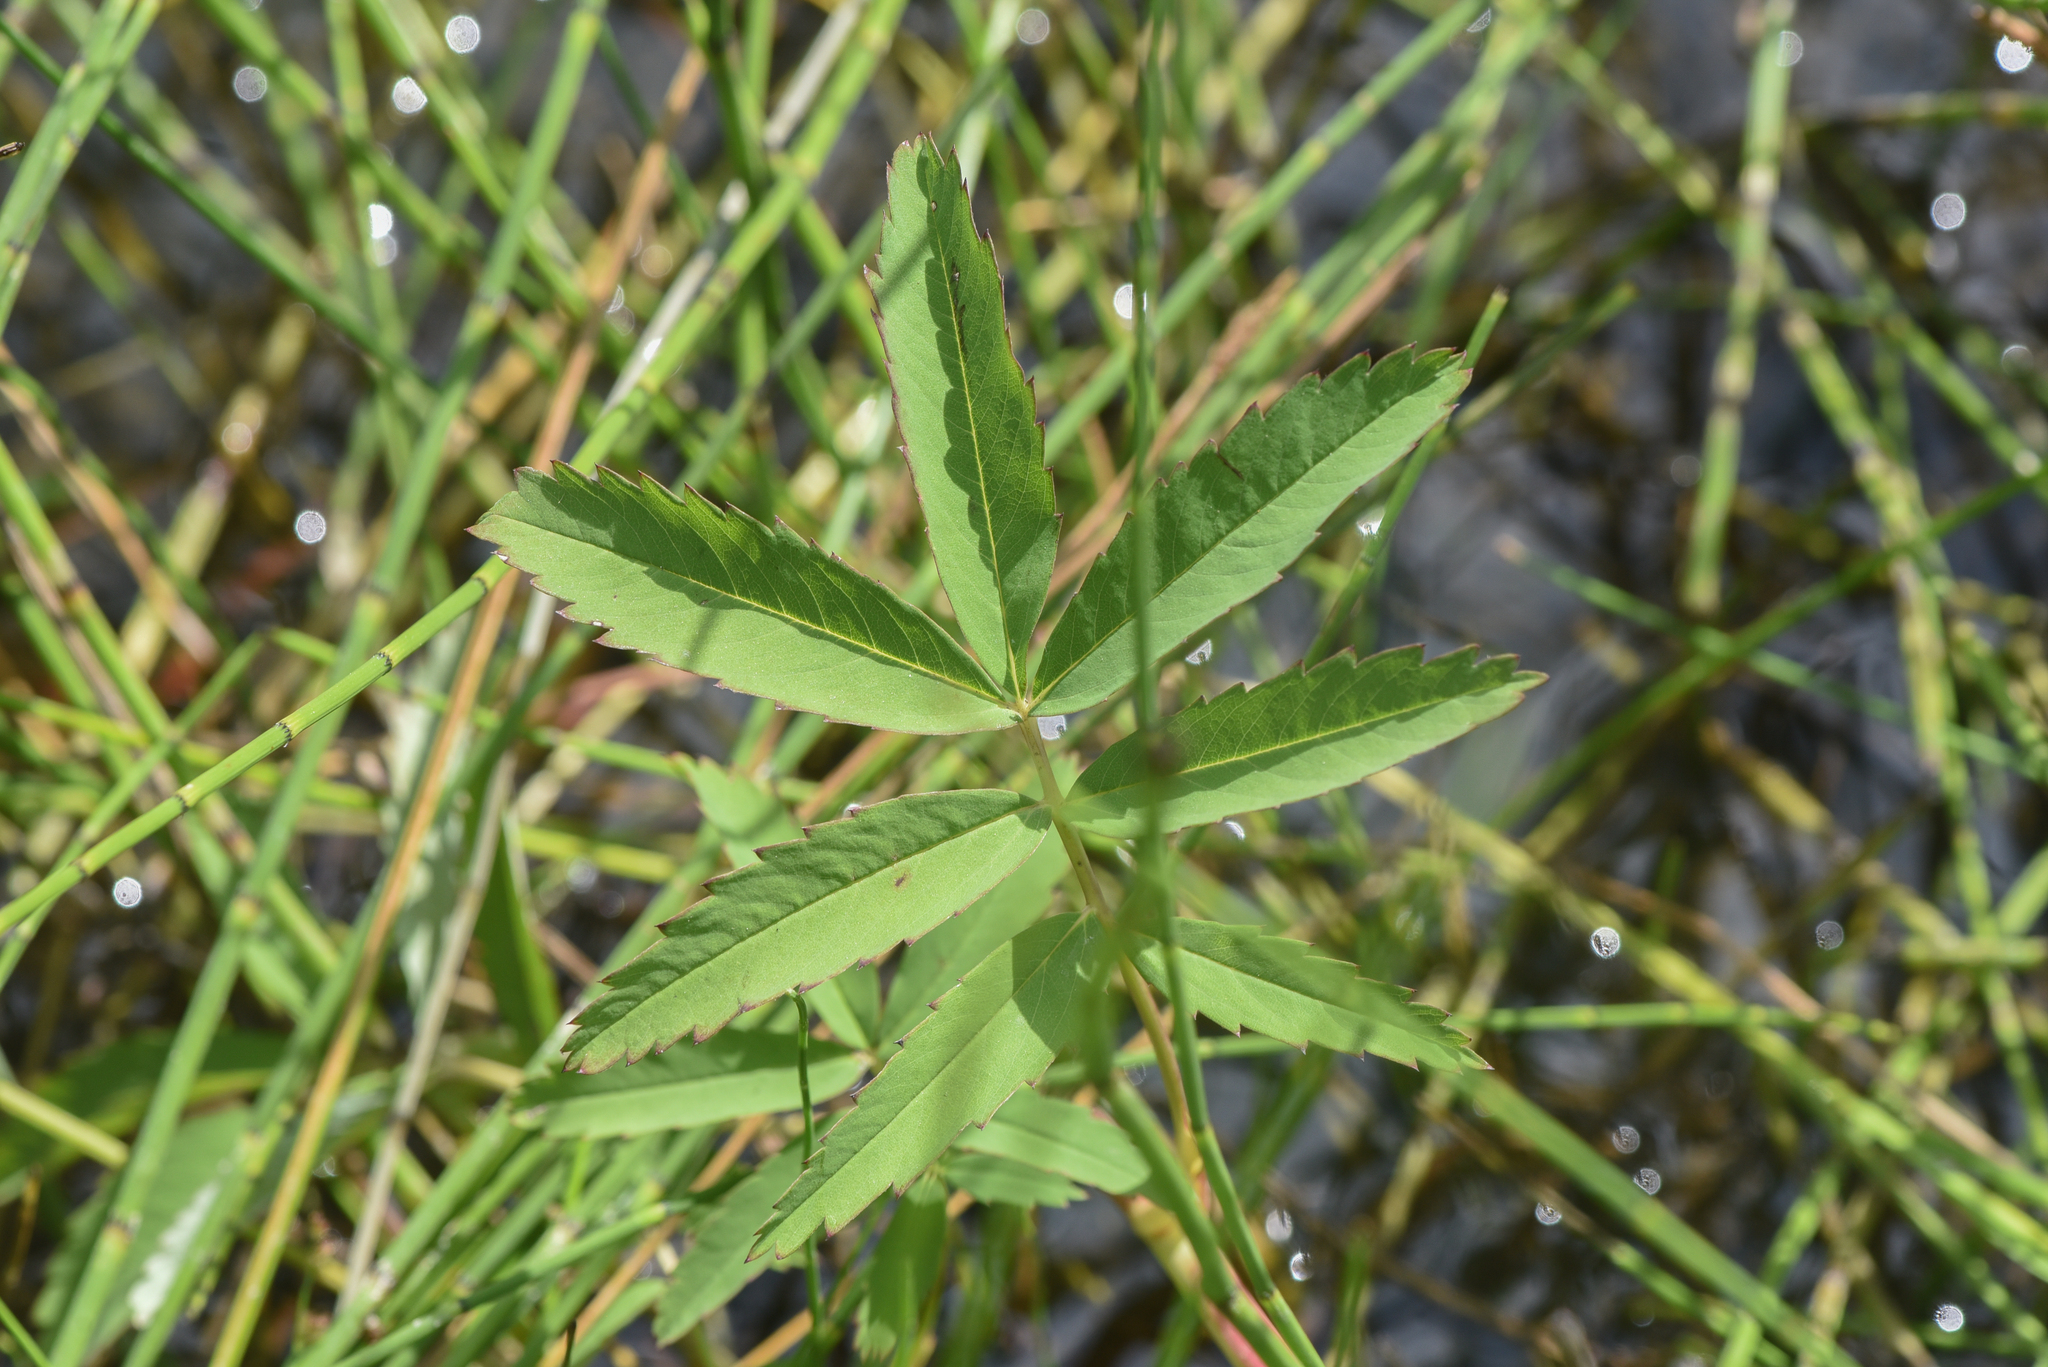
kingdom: Plantae
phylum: Tracheophyta
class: Magnoliopsida
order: Rosales
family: Rosaceae
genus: Comarum
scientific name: Comarum palustre
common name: Marsh cinquefoil
